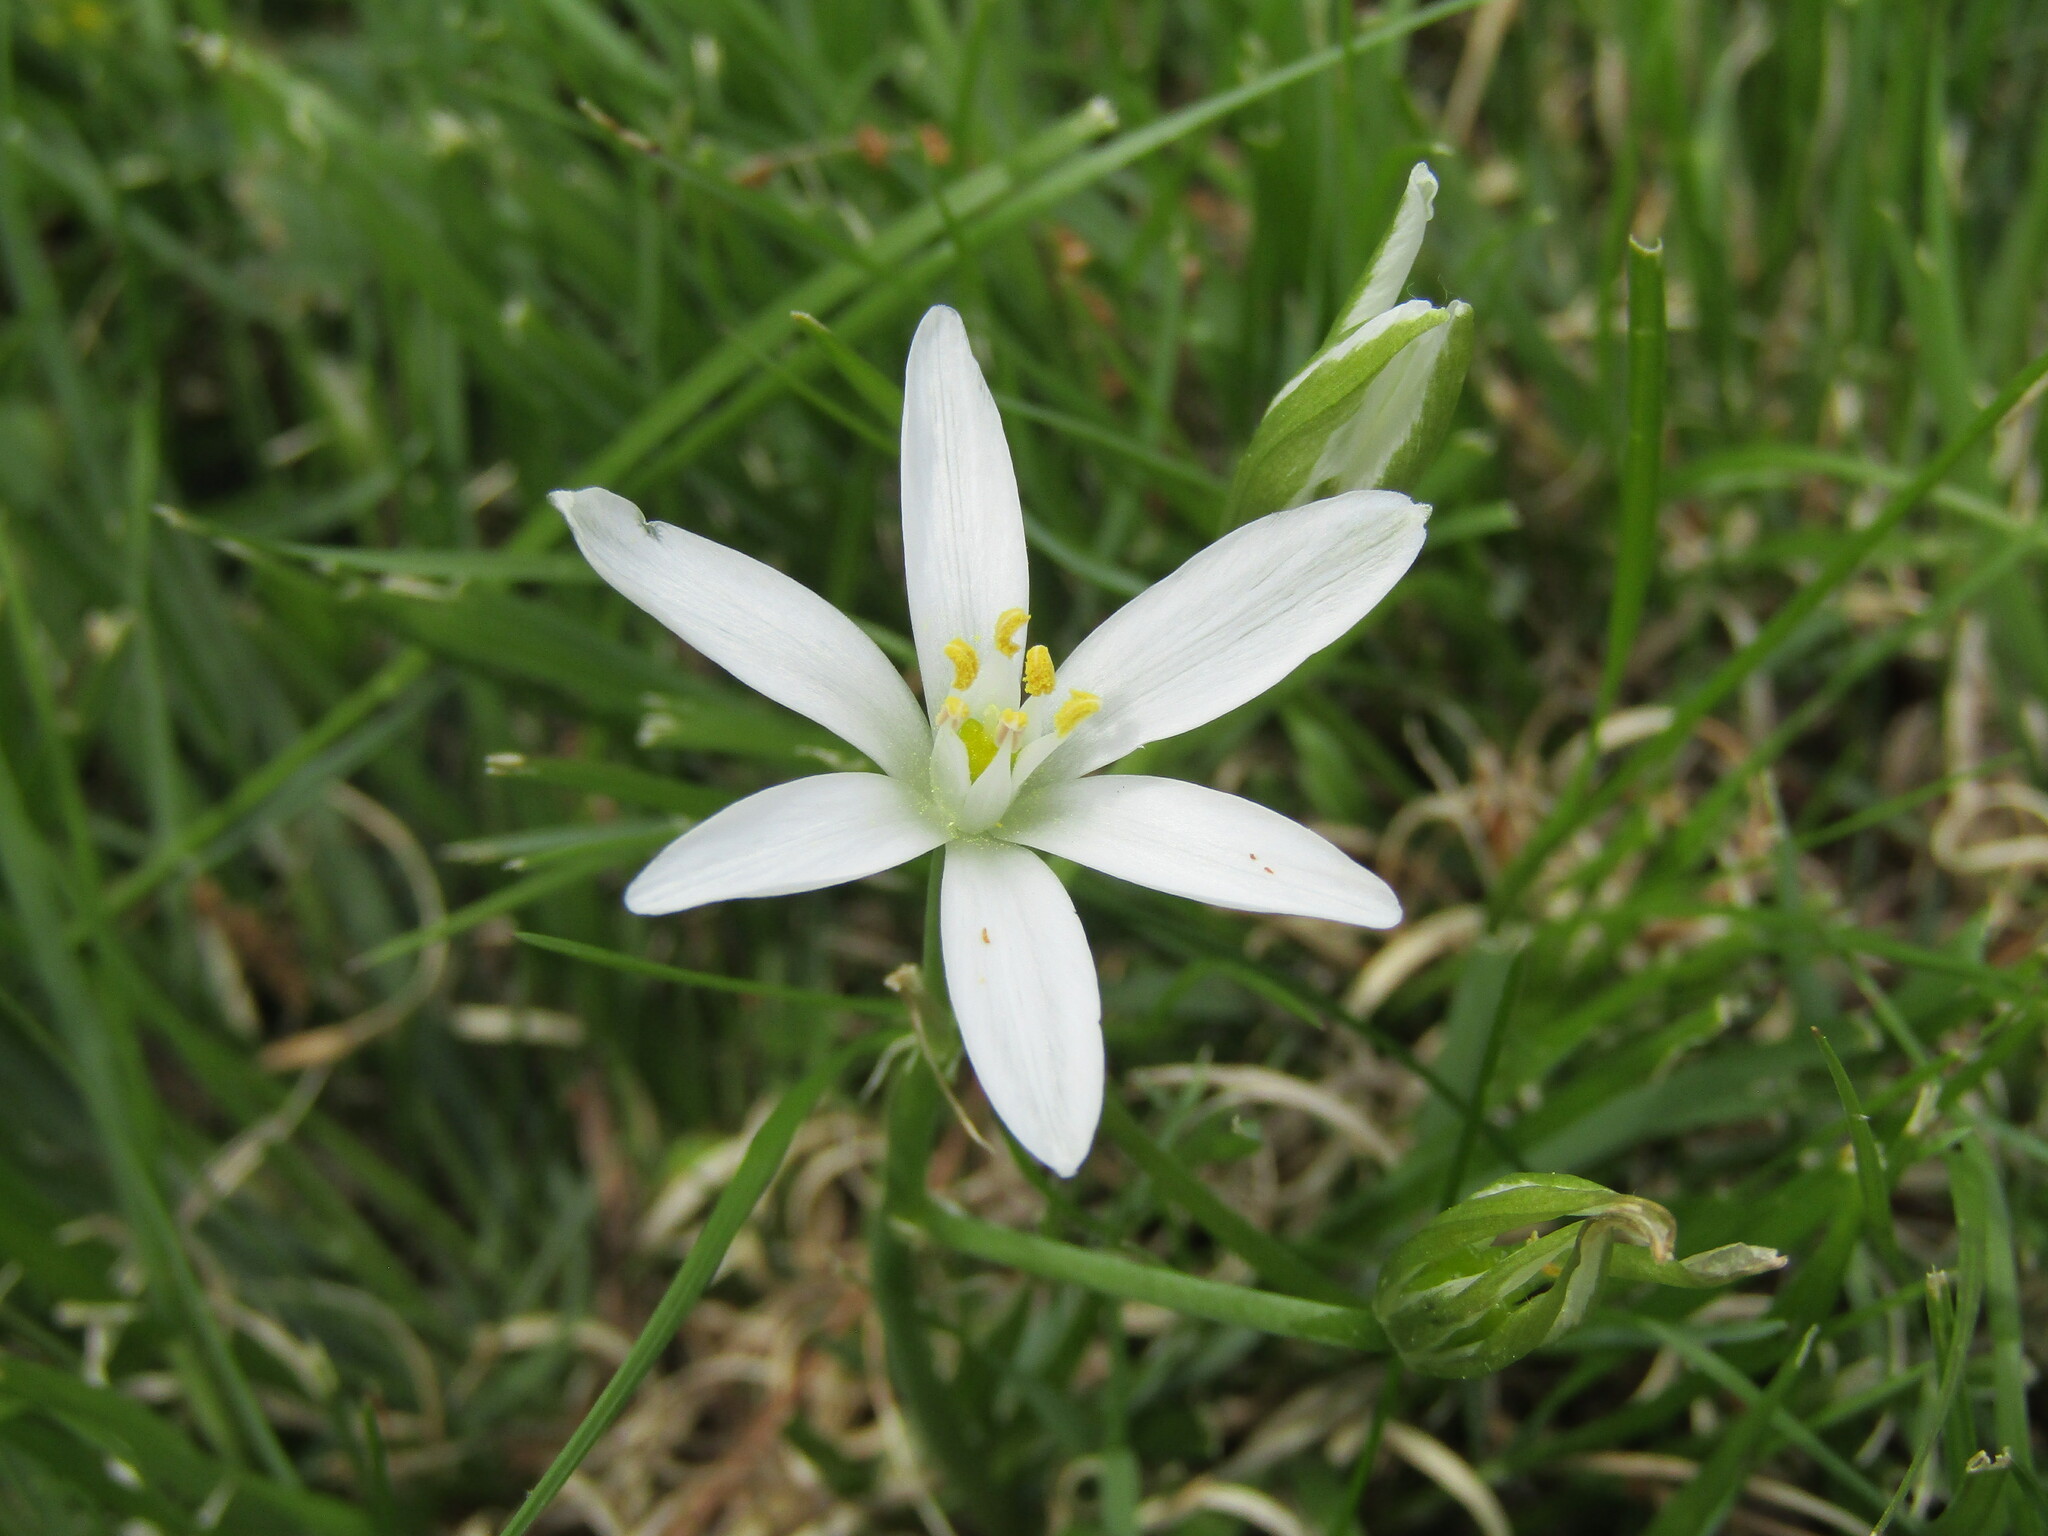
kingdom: Plantae
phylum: Tracheophyta
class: Liliopsida
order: Asparagales
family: Asparagaceae
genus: Ornithogalum
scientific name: Ornithogalum umbellatum
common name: Garden star-of-bethlehem
